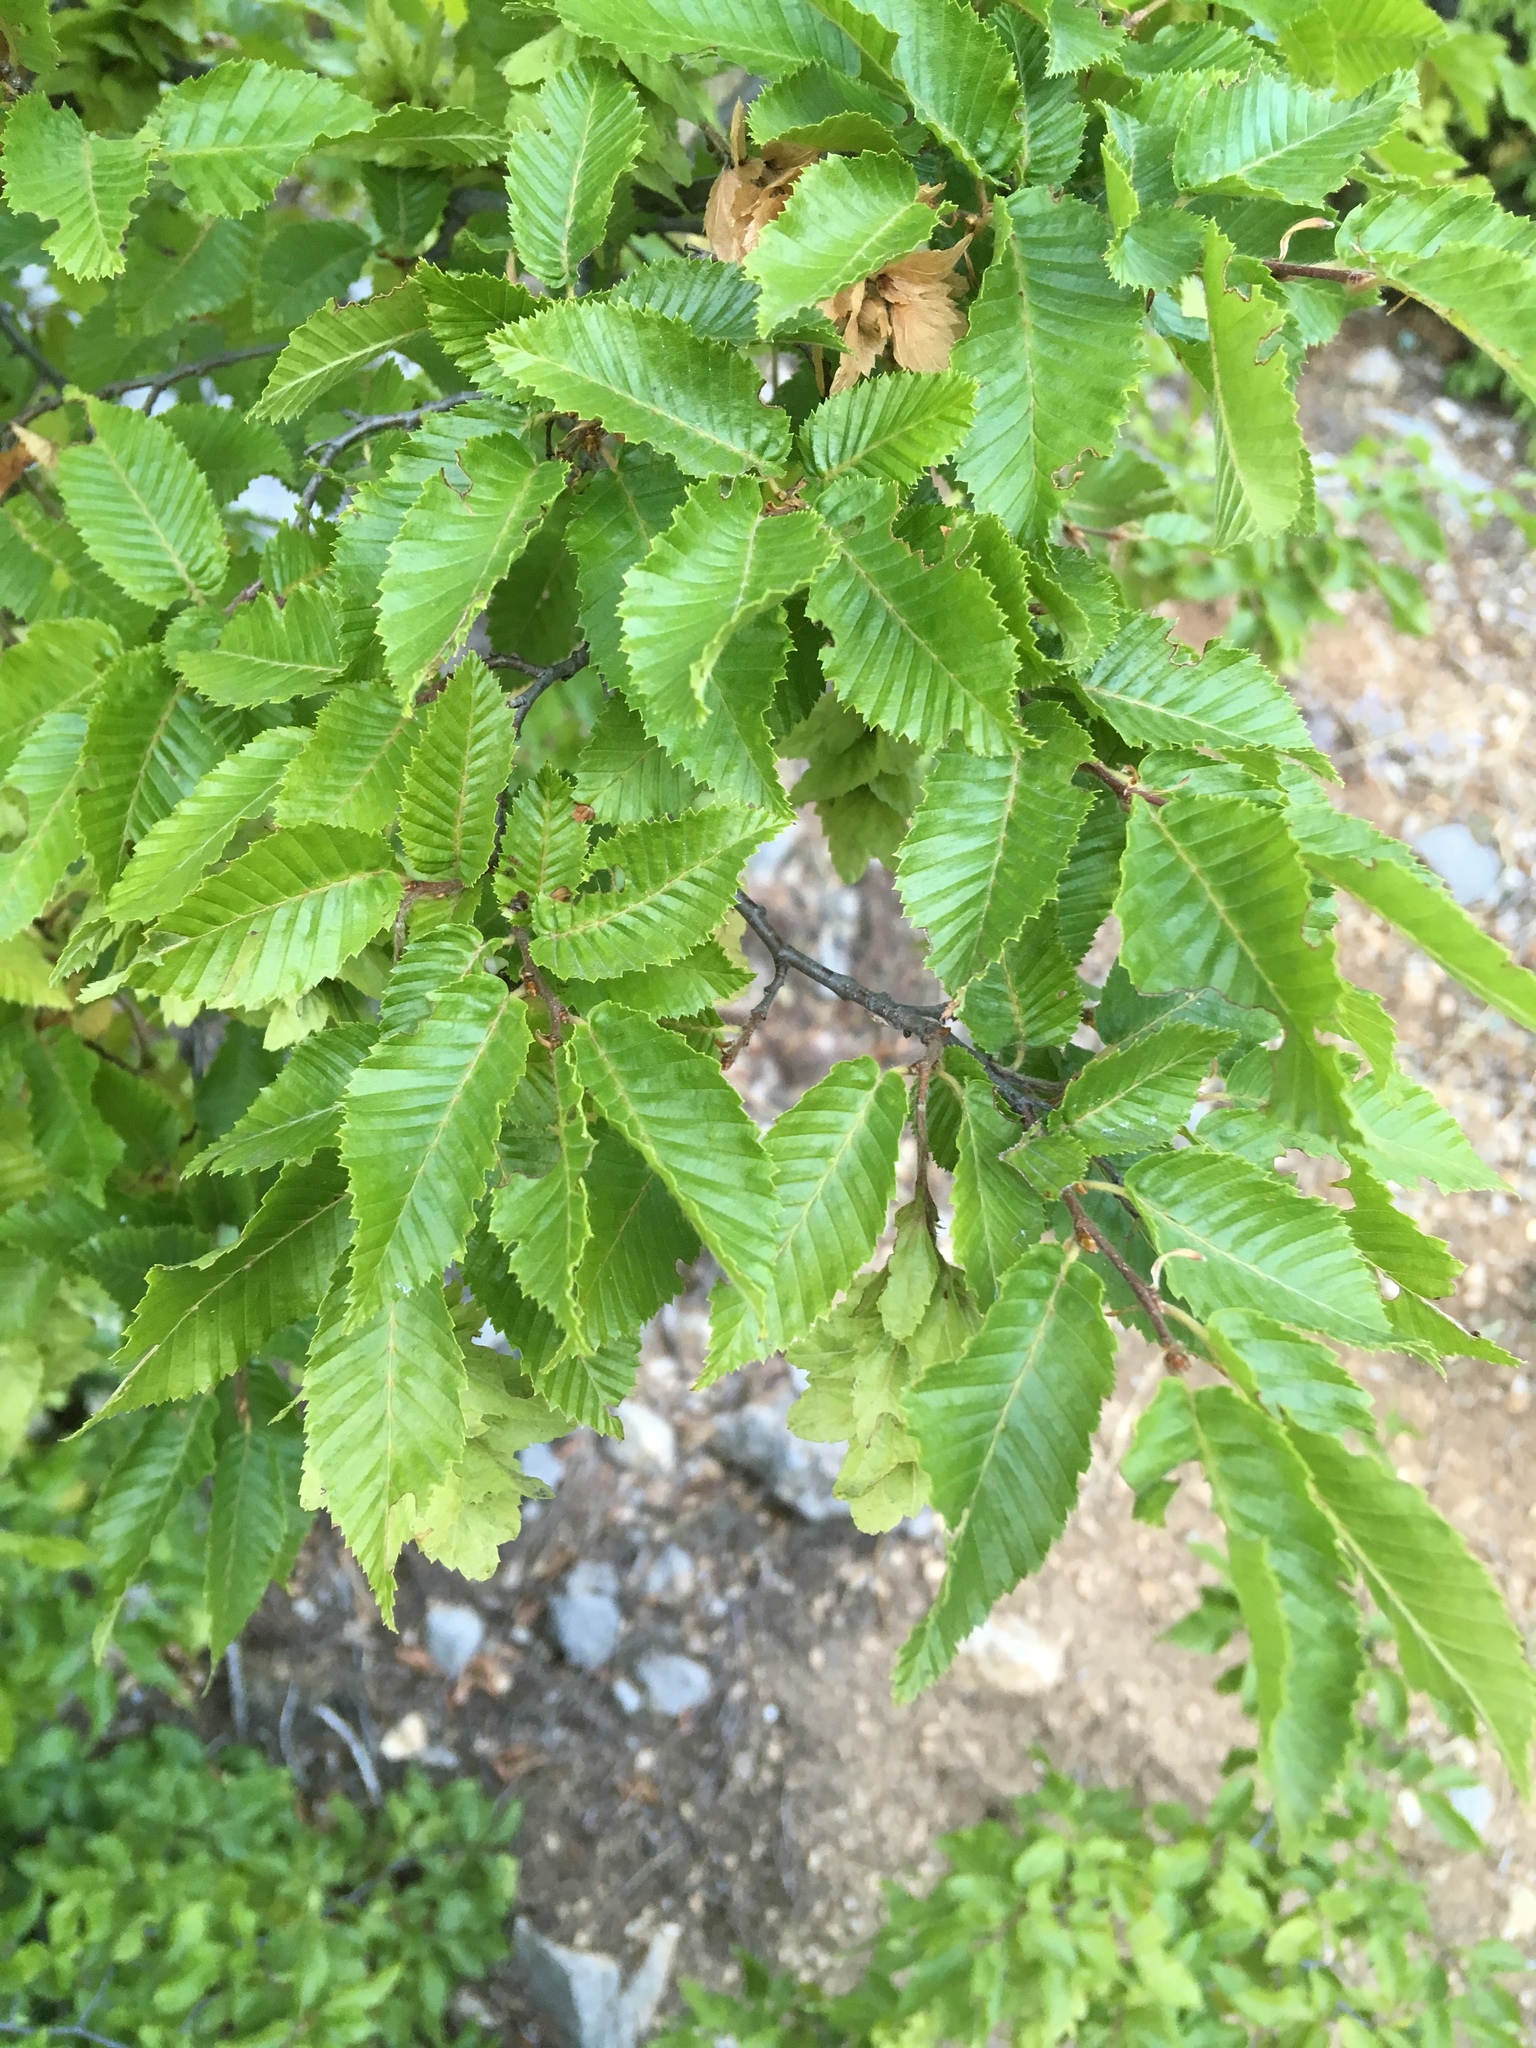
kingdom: Plantae
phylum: Tracheophyta
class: Magnoliopsida
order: Fagales
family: Betulaceae
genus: Carpinus
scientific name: Carpinus orientalis
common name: Eastern hornbeam
